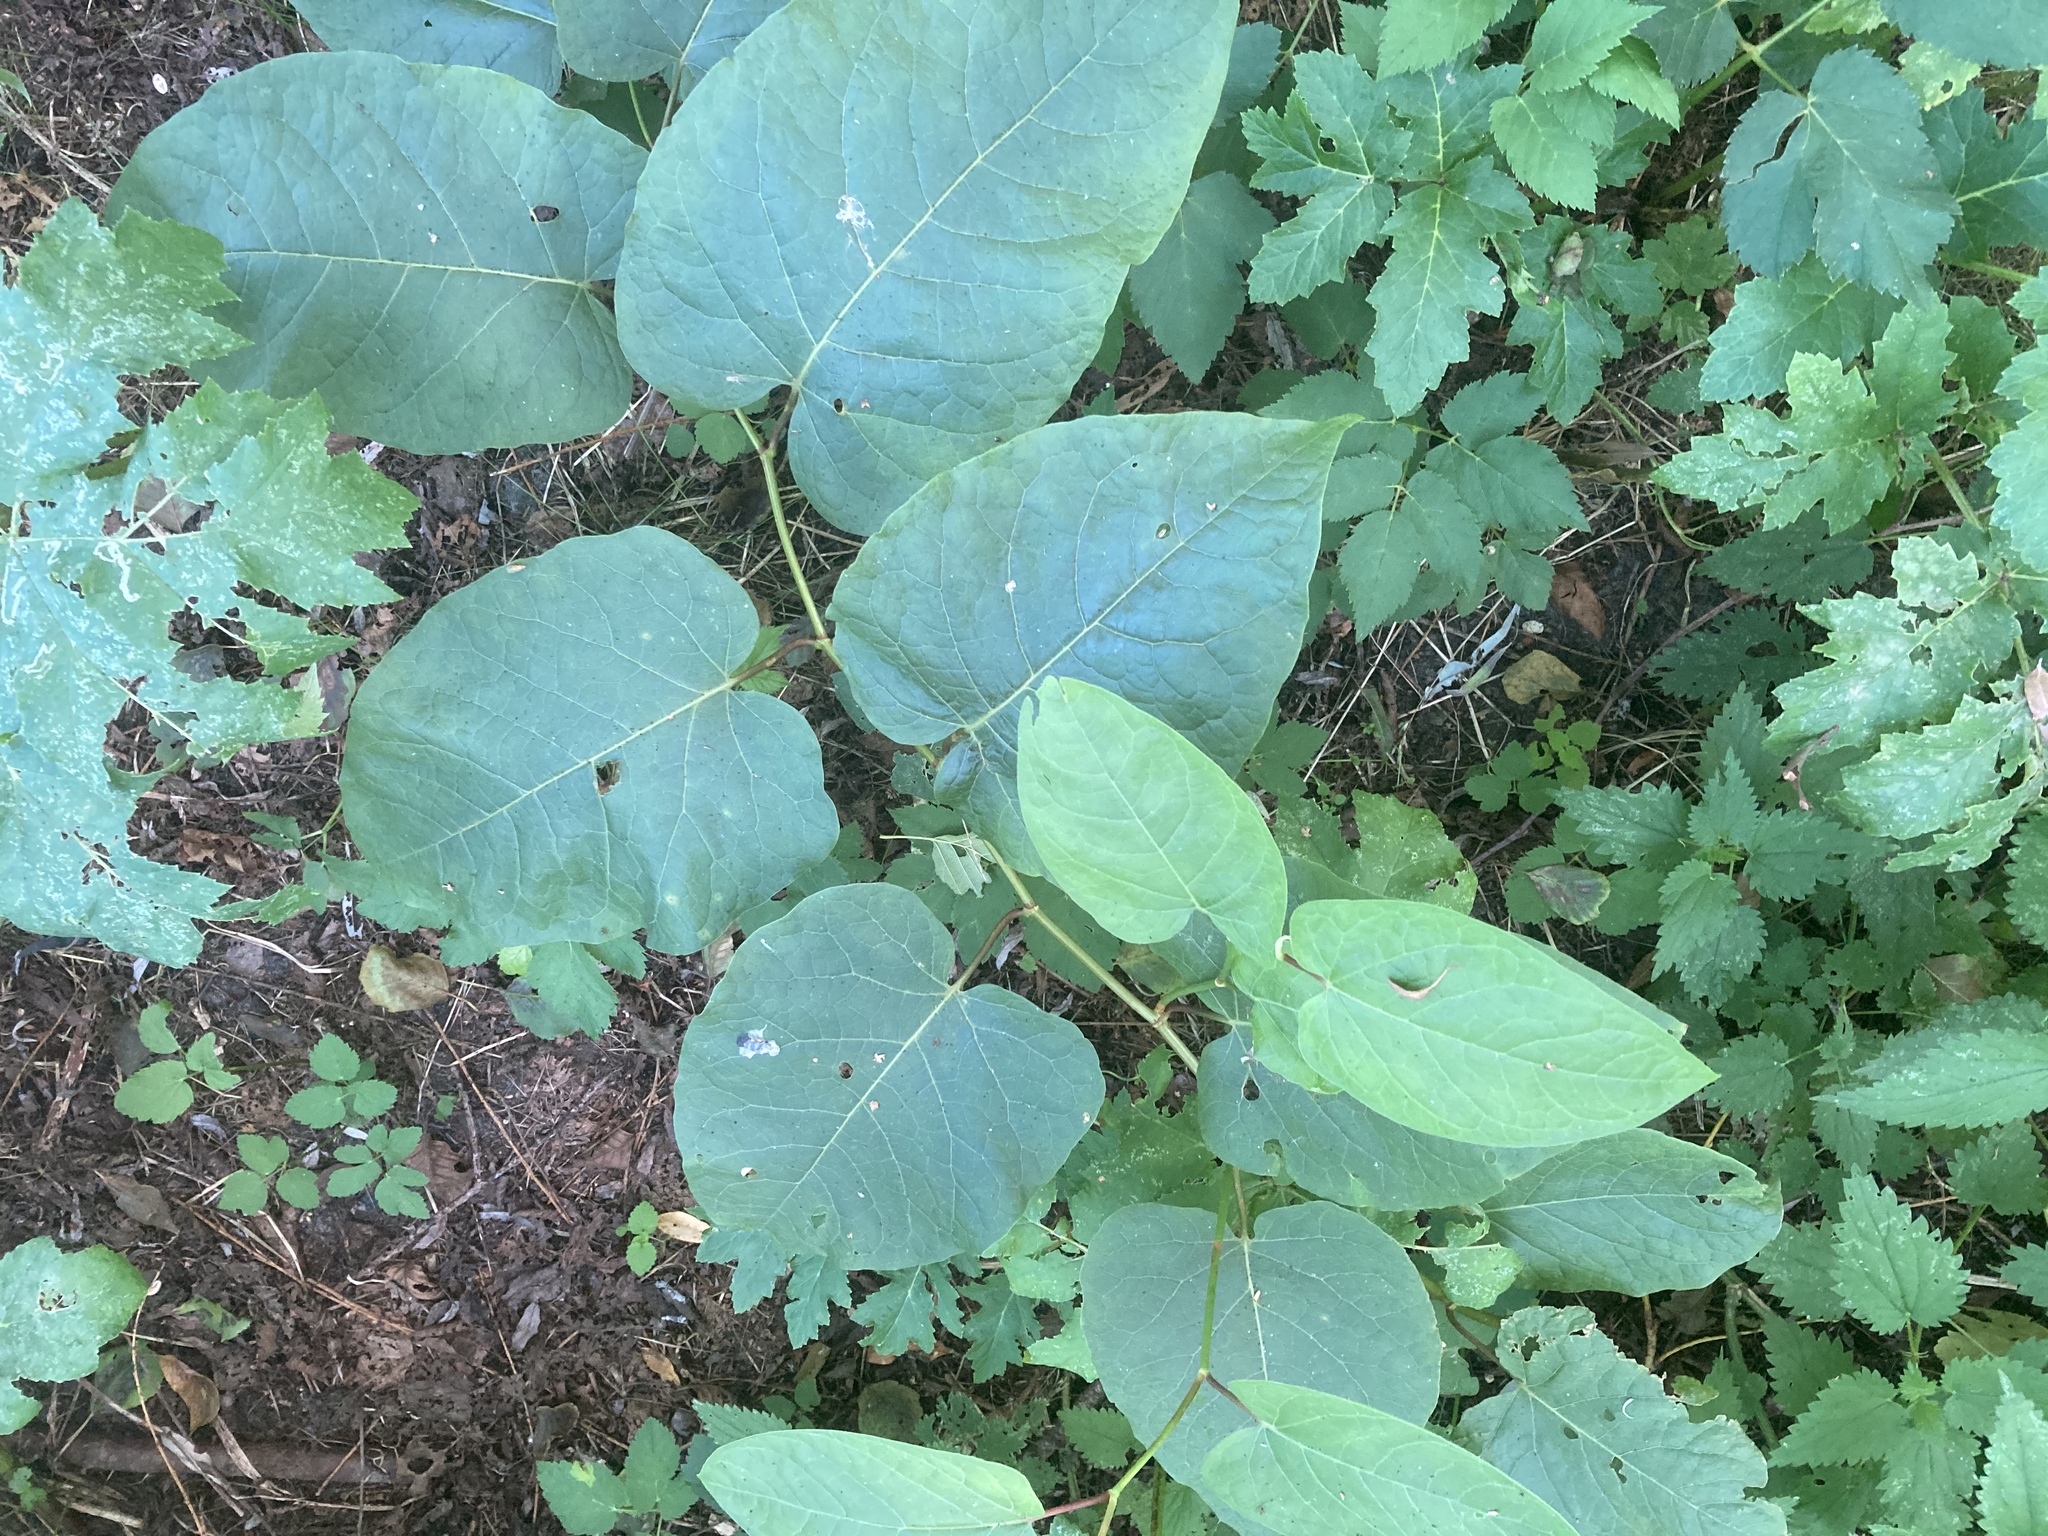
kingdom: Plantae
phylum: Tracheophyta
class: Magnoliopsida
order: Caryophyllales
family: Polygonaceae
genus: Reynoutria
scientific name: Reynoutria sachalinensis
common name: Giant knotweed
